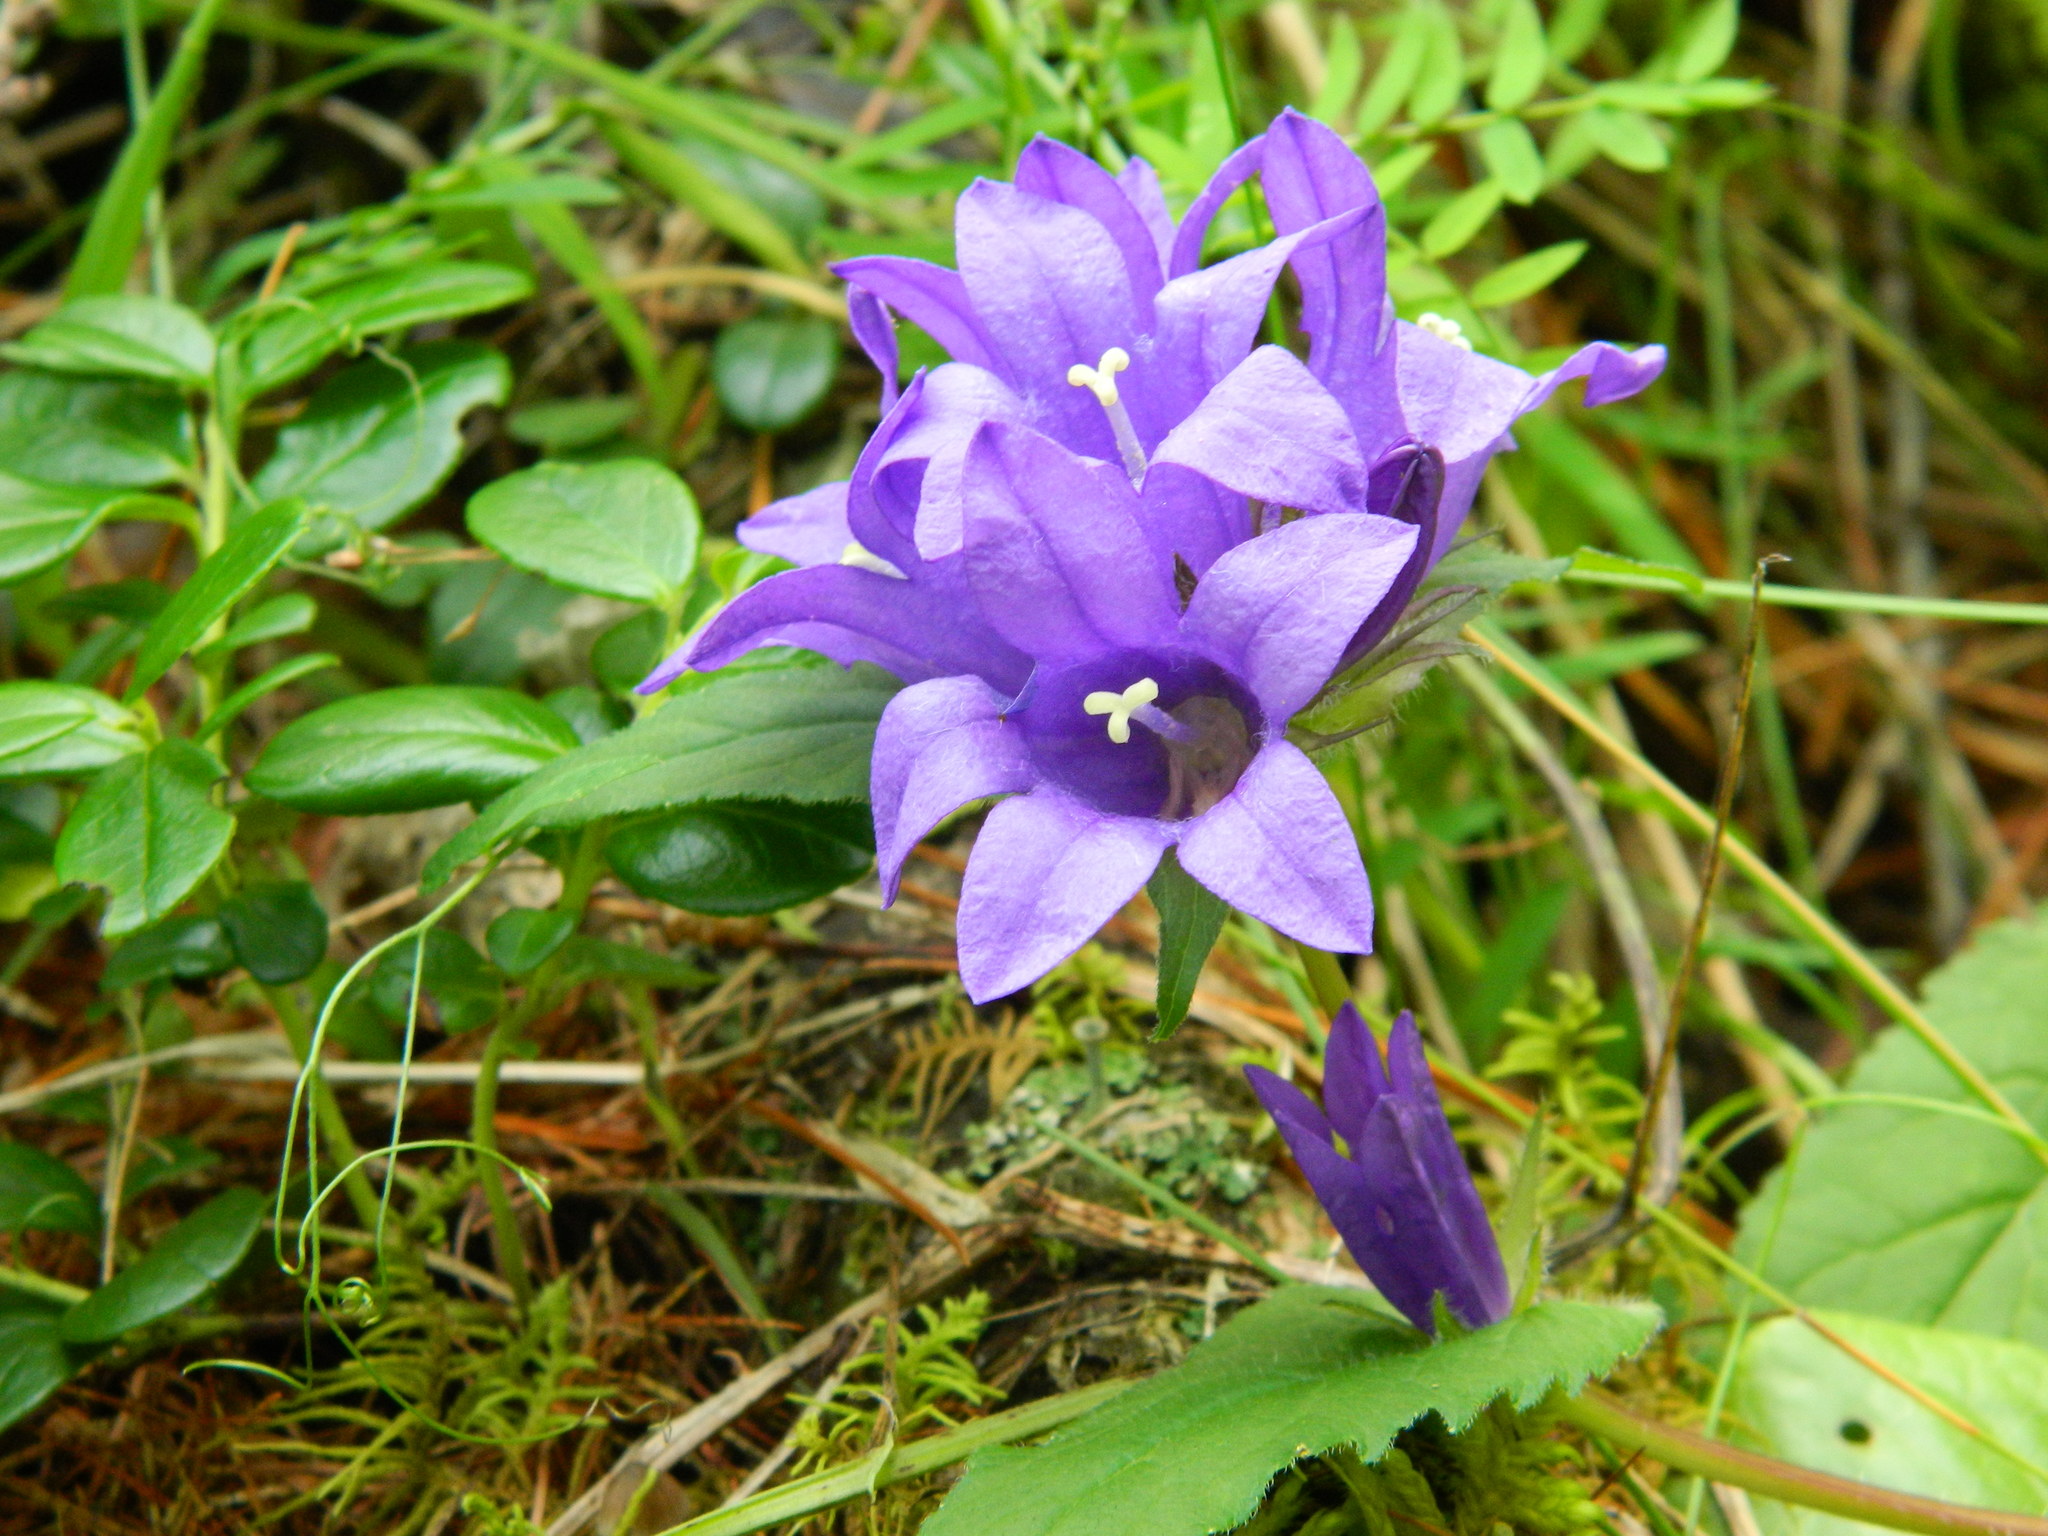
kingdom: Plantae
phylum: Tracheophyta
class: Magnoliopsida
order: Asterales
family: Campanulaceae
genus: Campanula
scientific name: Campanula glomerata
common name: Clustered bellflower
